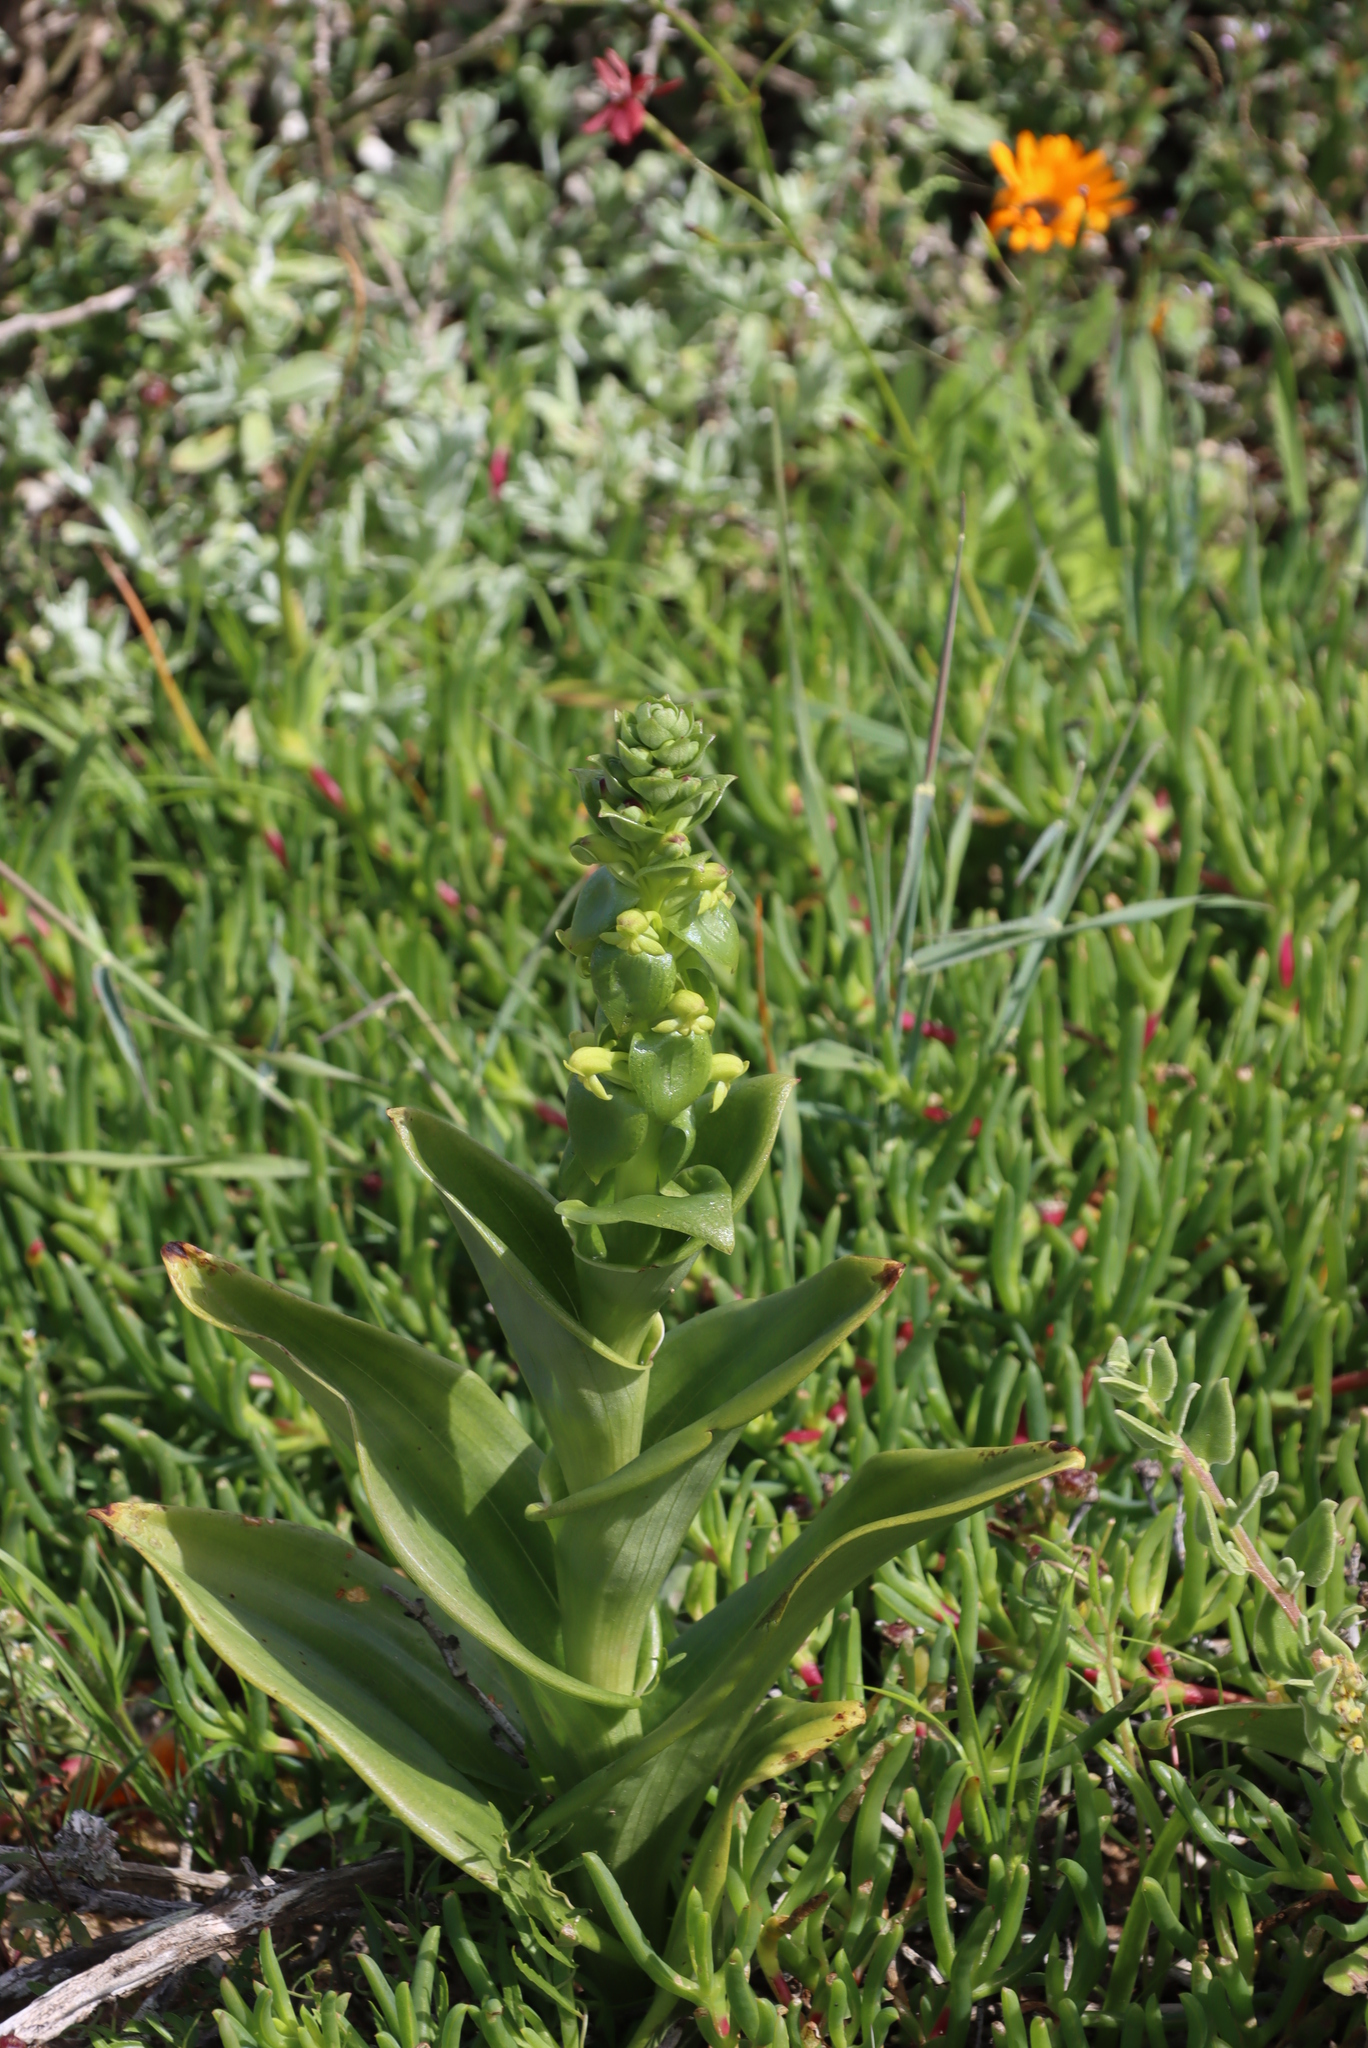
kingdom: Plantae
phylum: Tracheophyta
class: Liliopsida
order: Asparagales
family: Orchidaceae
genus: Satyrium
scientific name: Satyrium odorum
